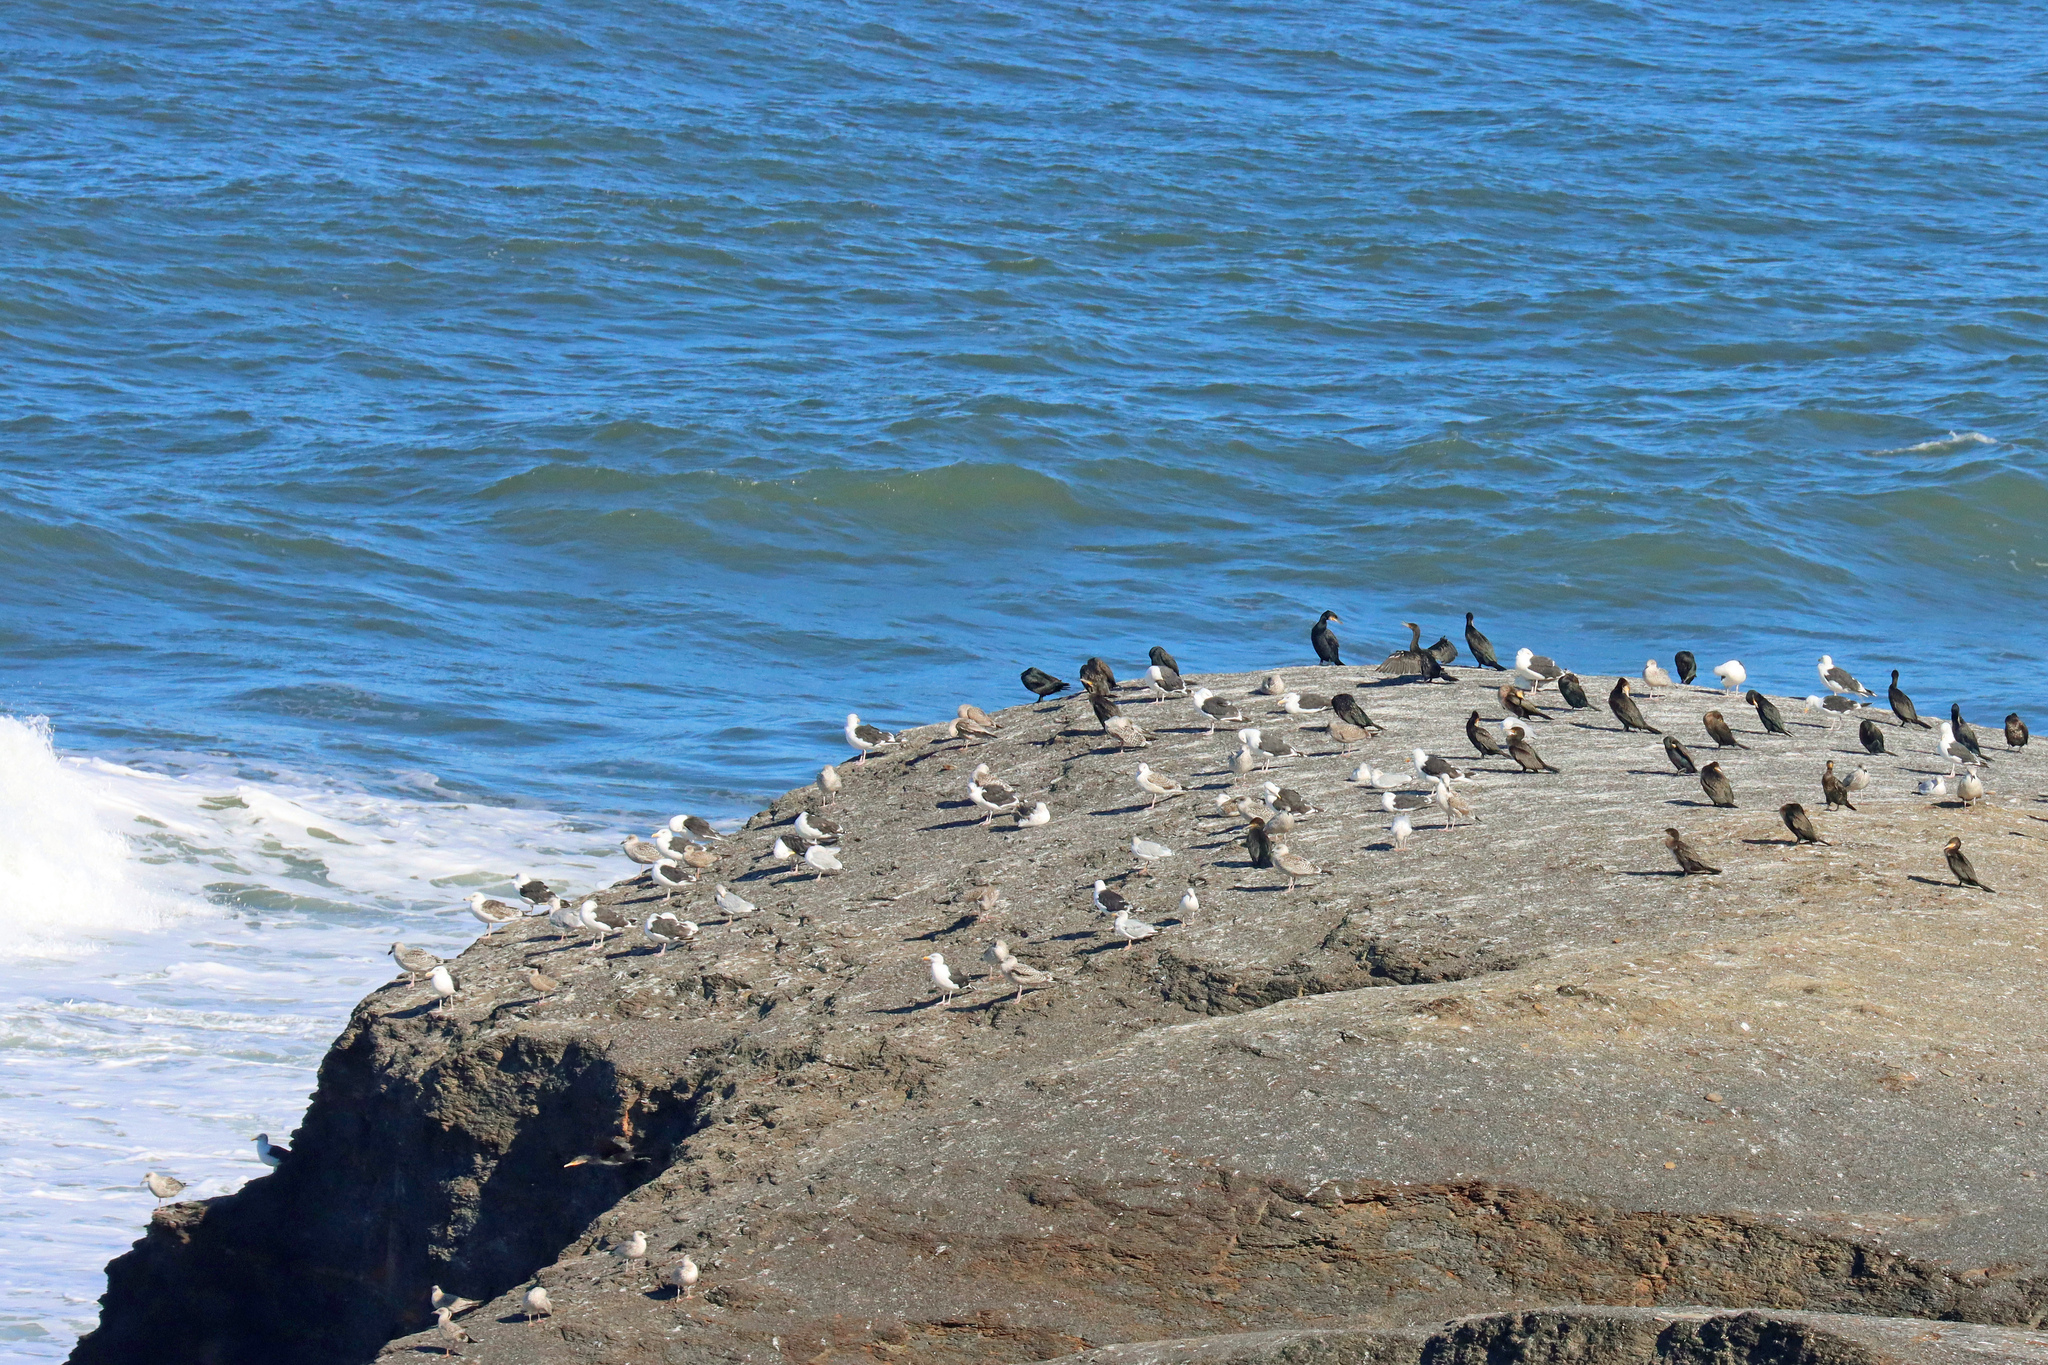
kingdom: Animalia
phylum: Chordata
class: Aves
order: Charadriiformes
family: Laridae
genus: Larus
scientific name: Larus argentatus
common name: Herring gull
